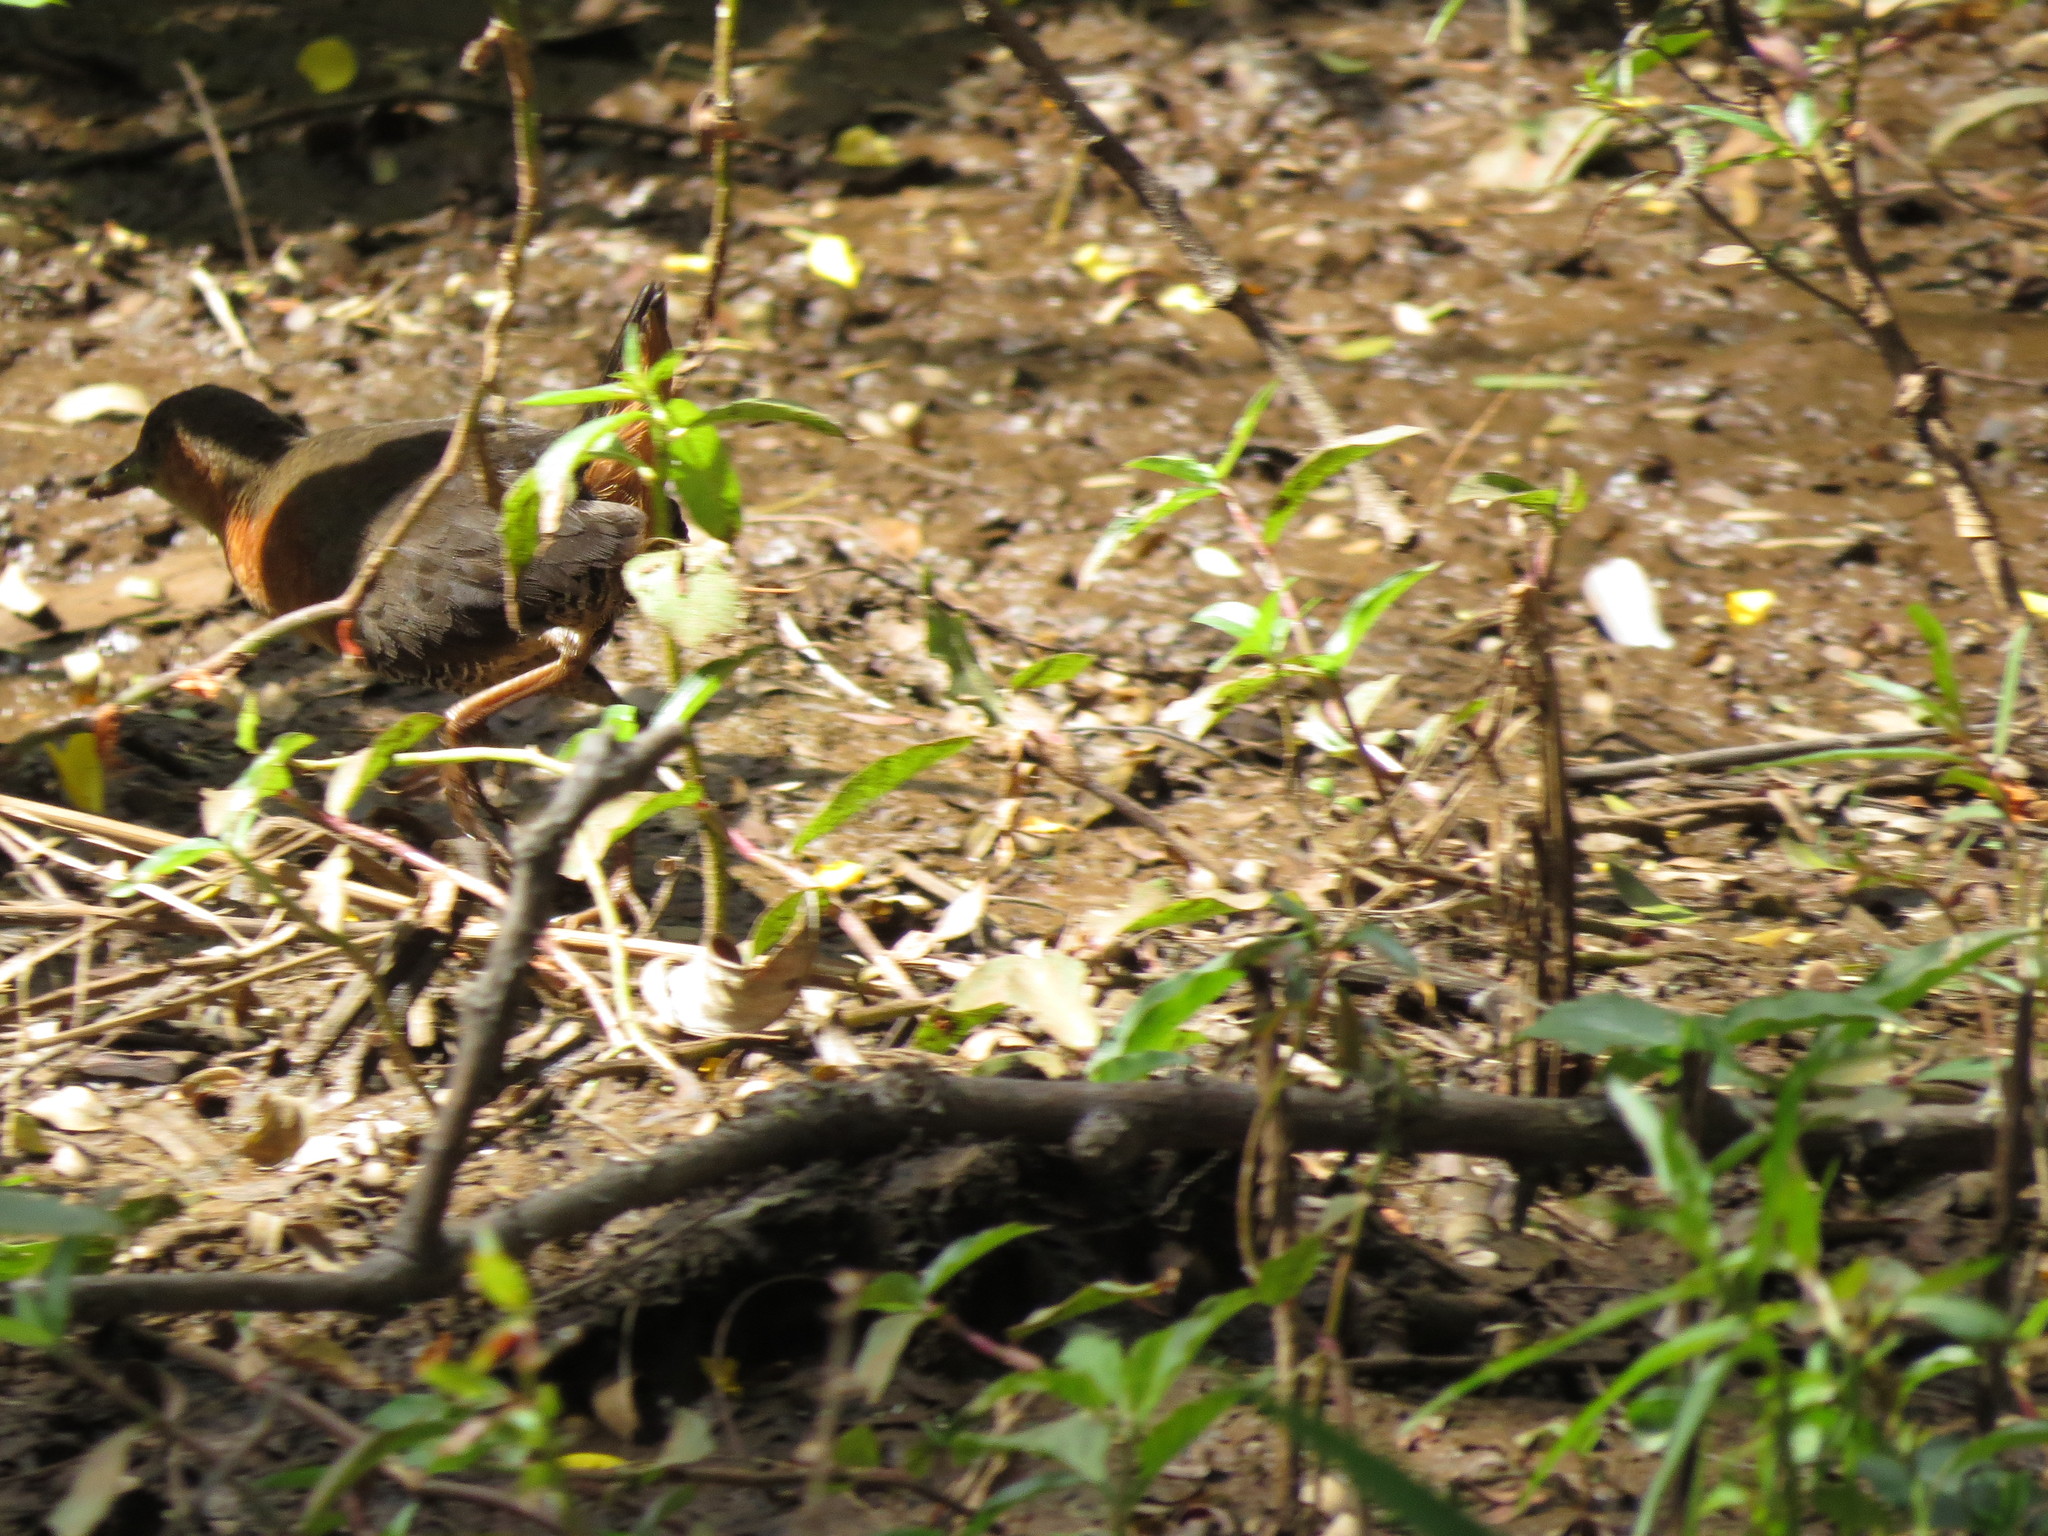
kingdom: Animalia
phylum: Chordata
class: Aves
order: Gruiformes
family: Rallidae
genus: Laterallus
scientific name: Laterallus melanophaius
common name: Rufous-sided crake
